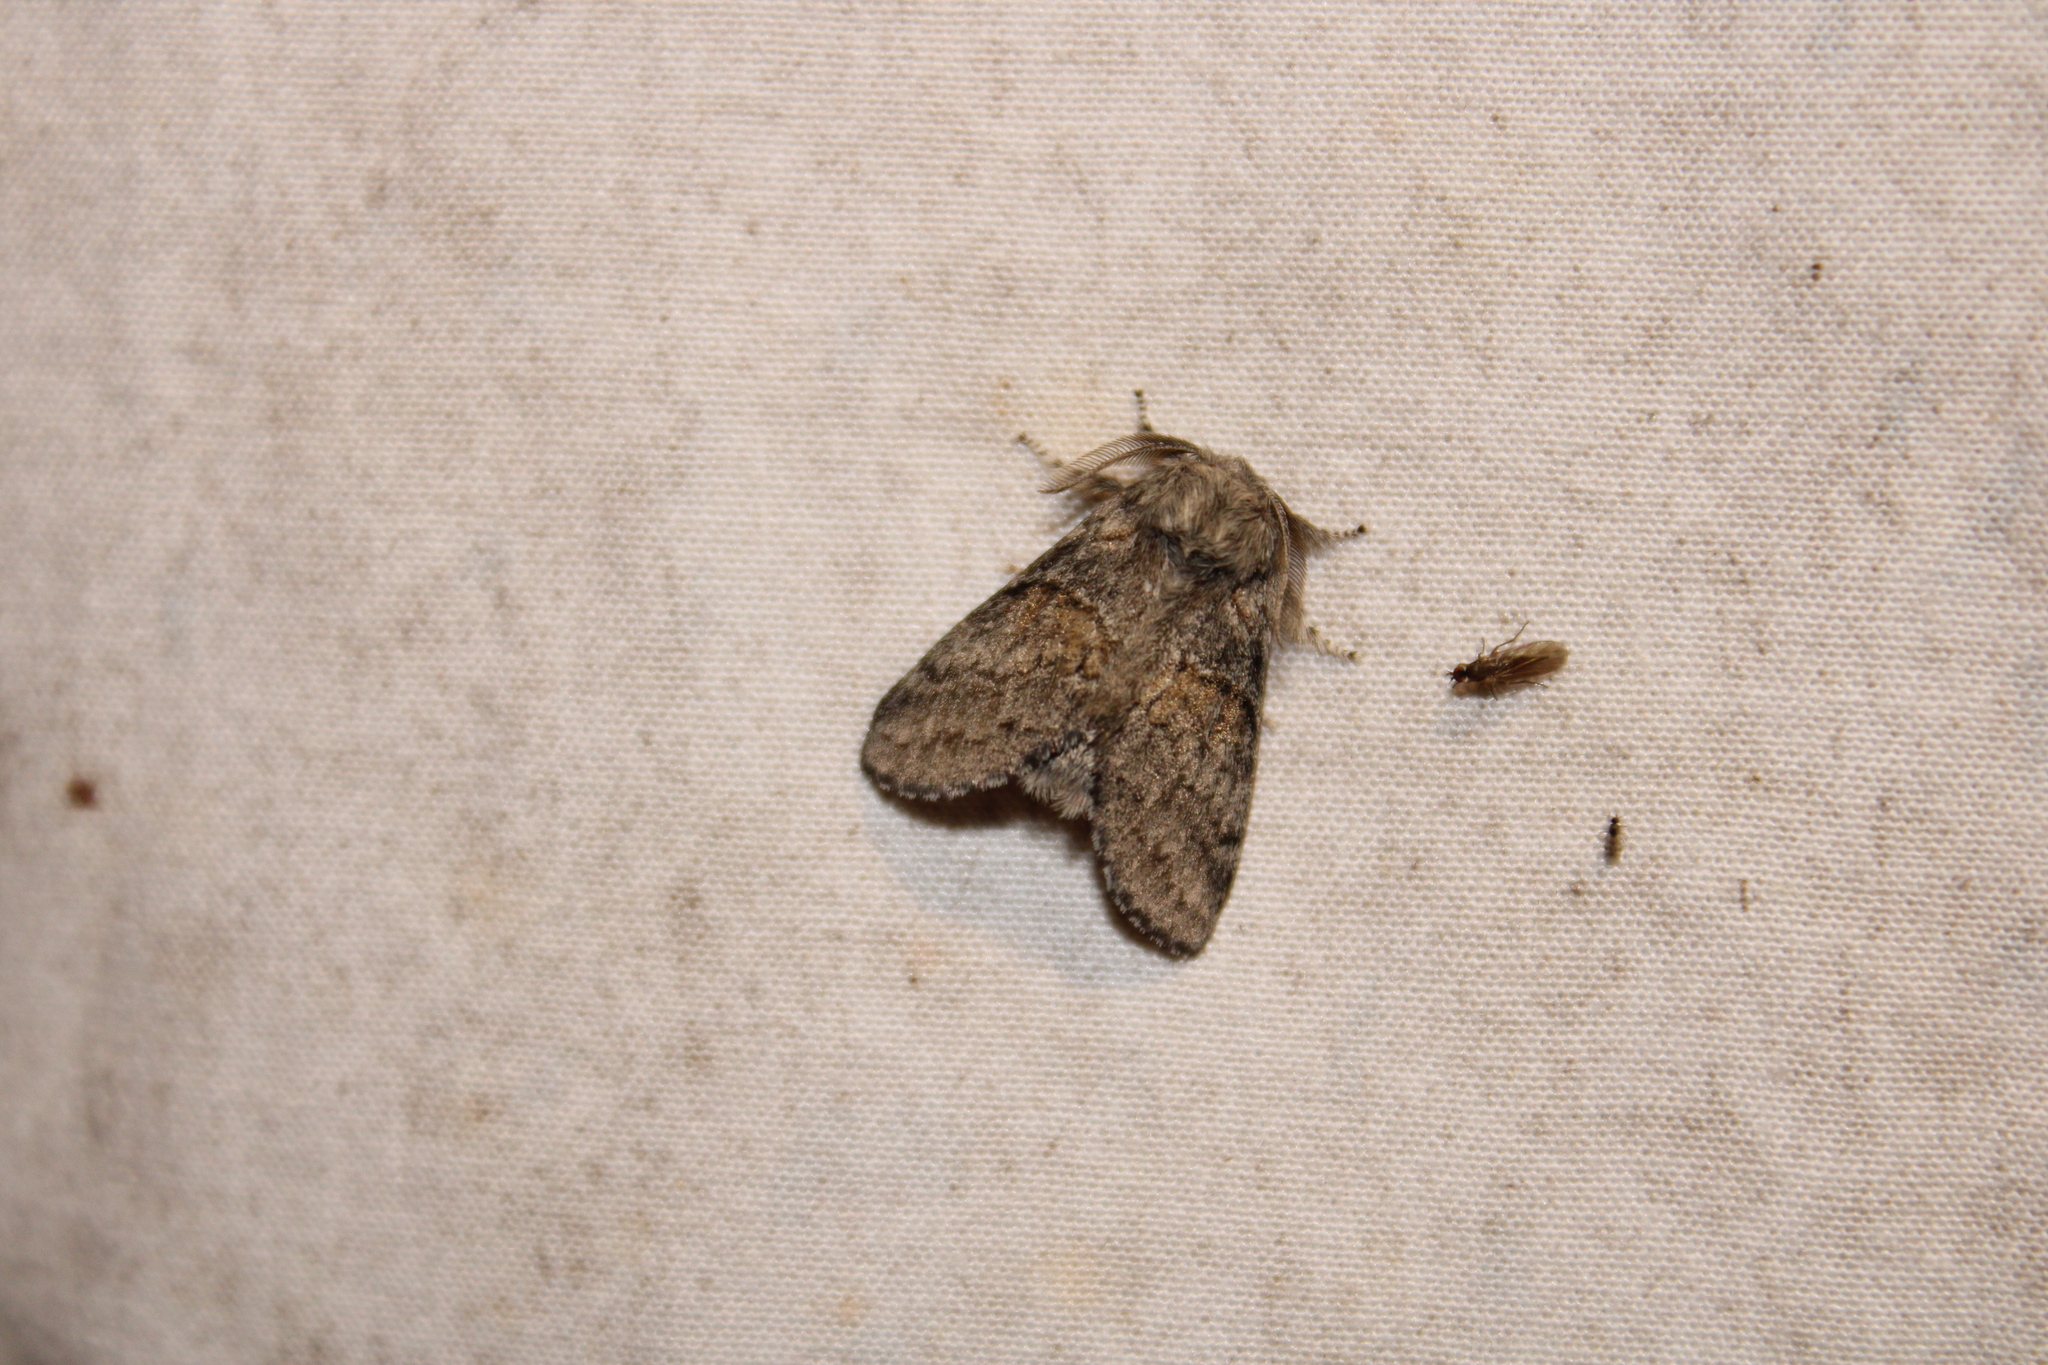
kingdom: Animalia
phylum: Arthropoda
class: Insecta
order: Lepidoptera
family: Notodontidae
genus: Gluphisia
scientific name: Gluphisia septentrionis
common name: Common gluphisia
